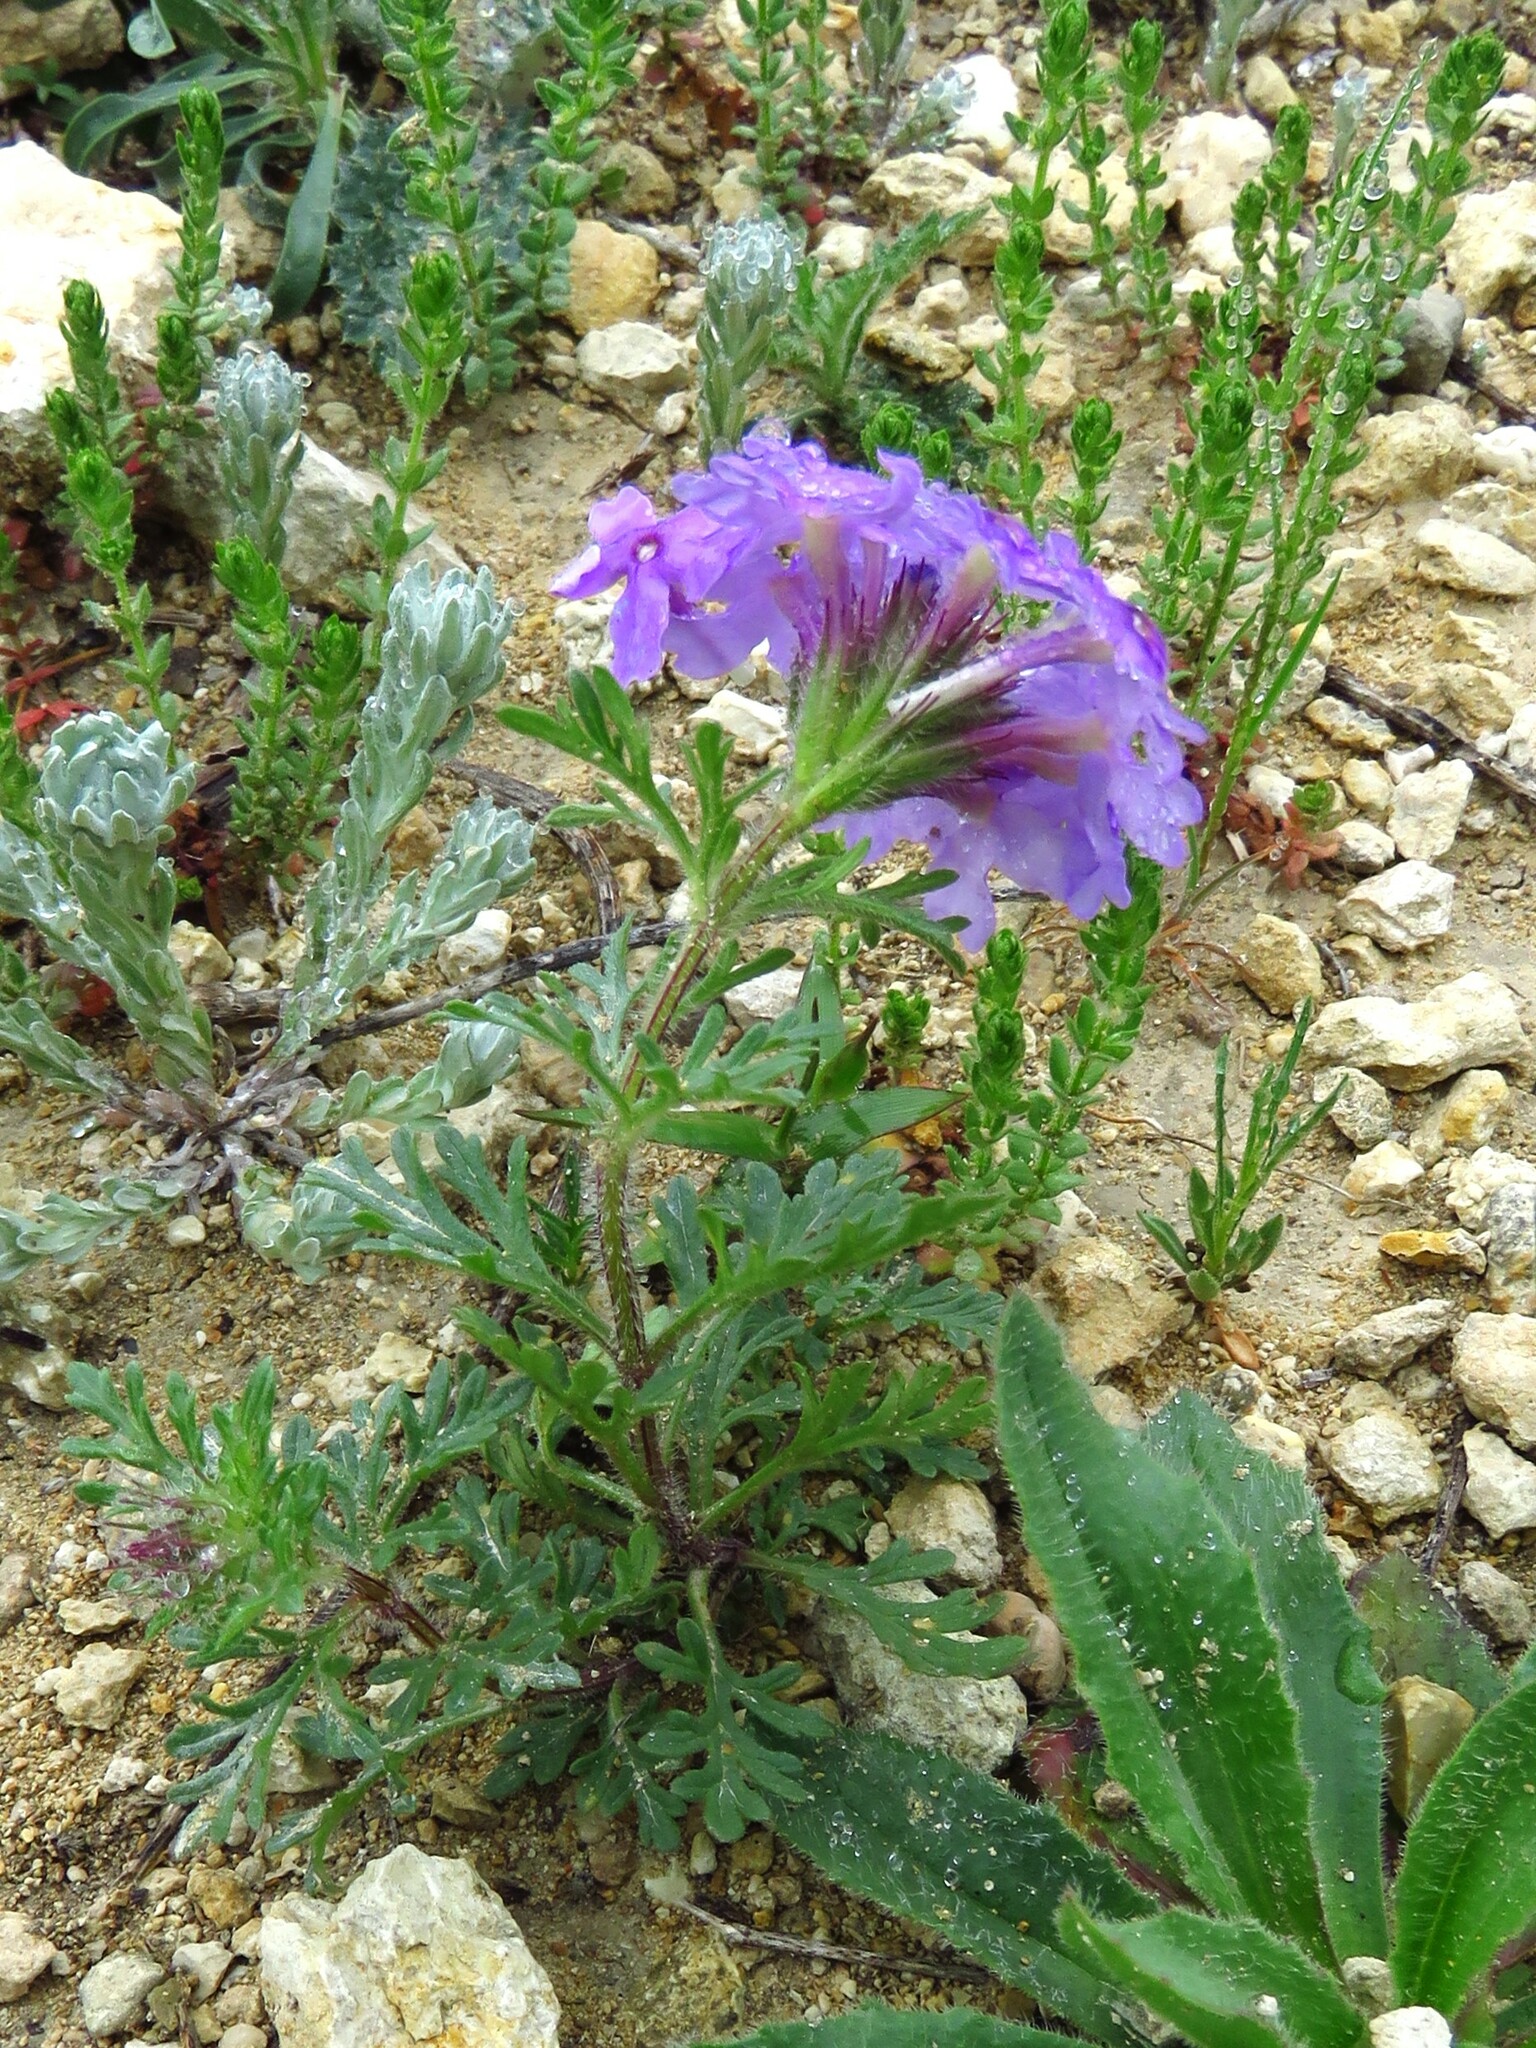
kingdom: Plantae
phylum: Tracheophyta
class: Magnoliopsida
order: Lamiales
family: Verbenaceae
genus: Verbena
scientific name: Verbena bipinnatifida
